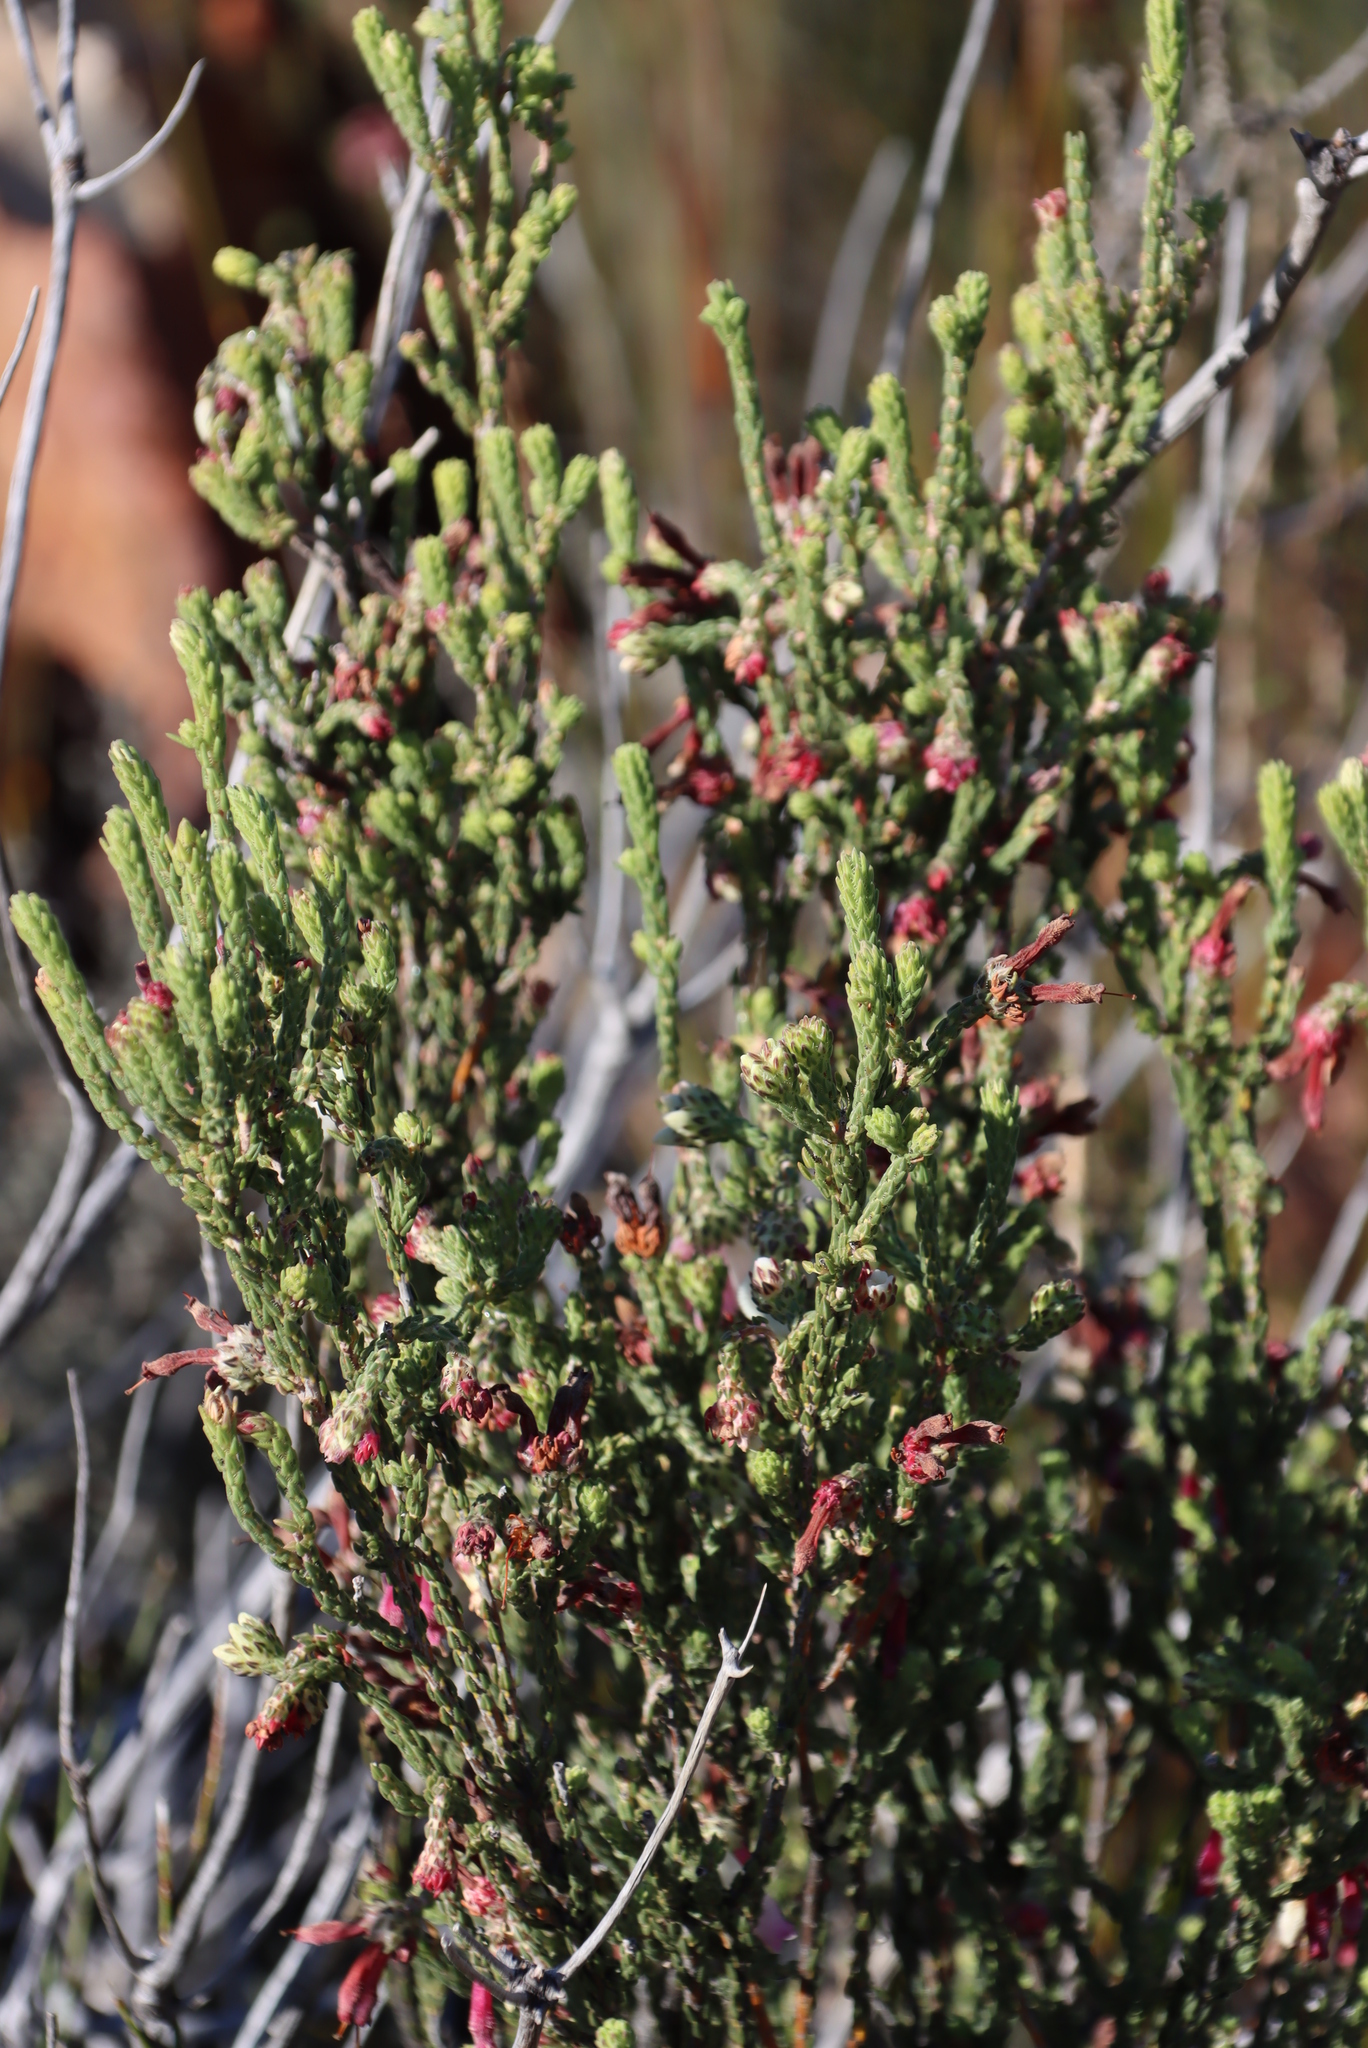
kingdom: Plantae
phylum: Tracheophyta
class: Magnoliopsida
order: Ericales
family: Ericaceae
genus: Erica
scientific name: Erica pectinifolia
